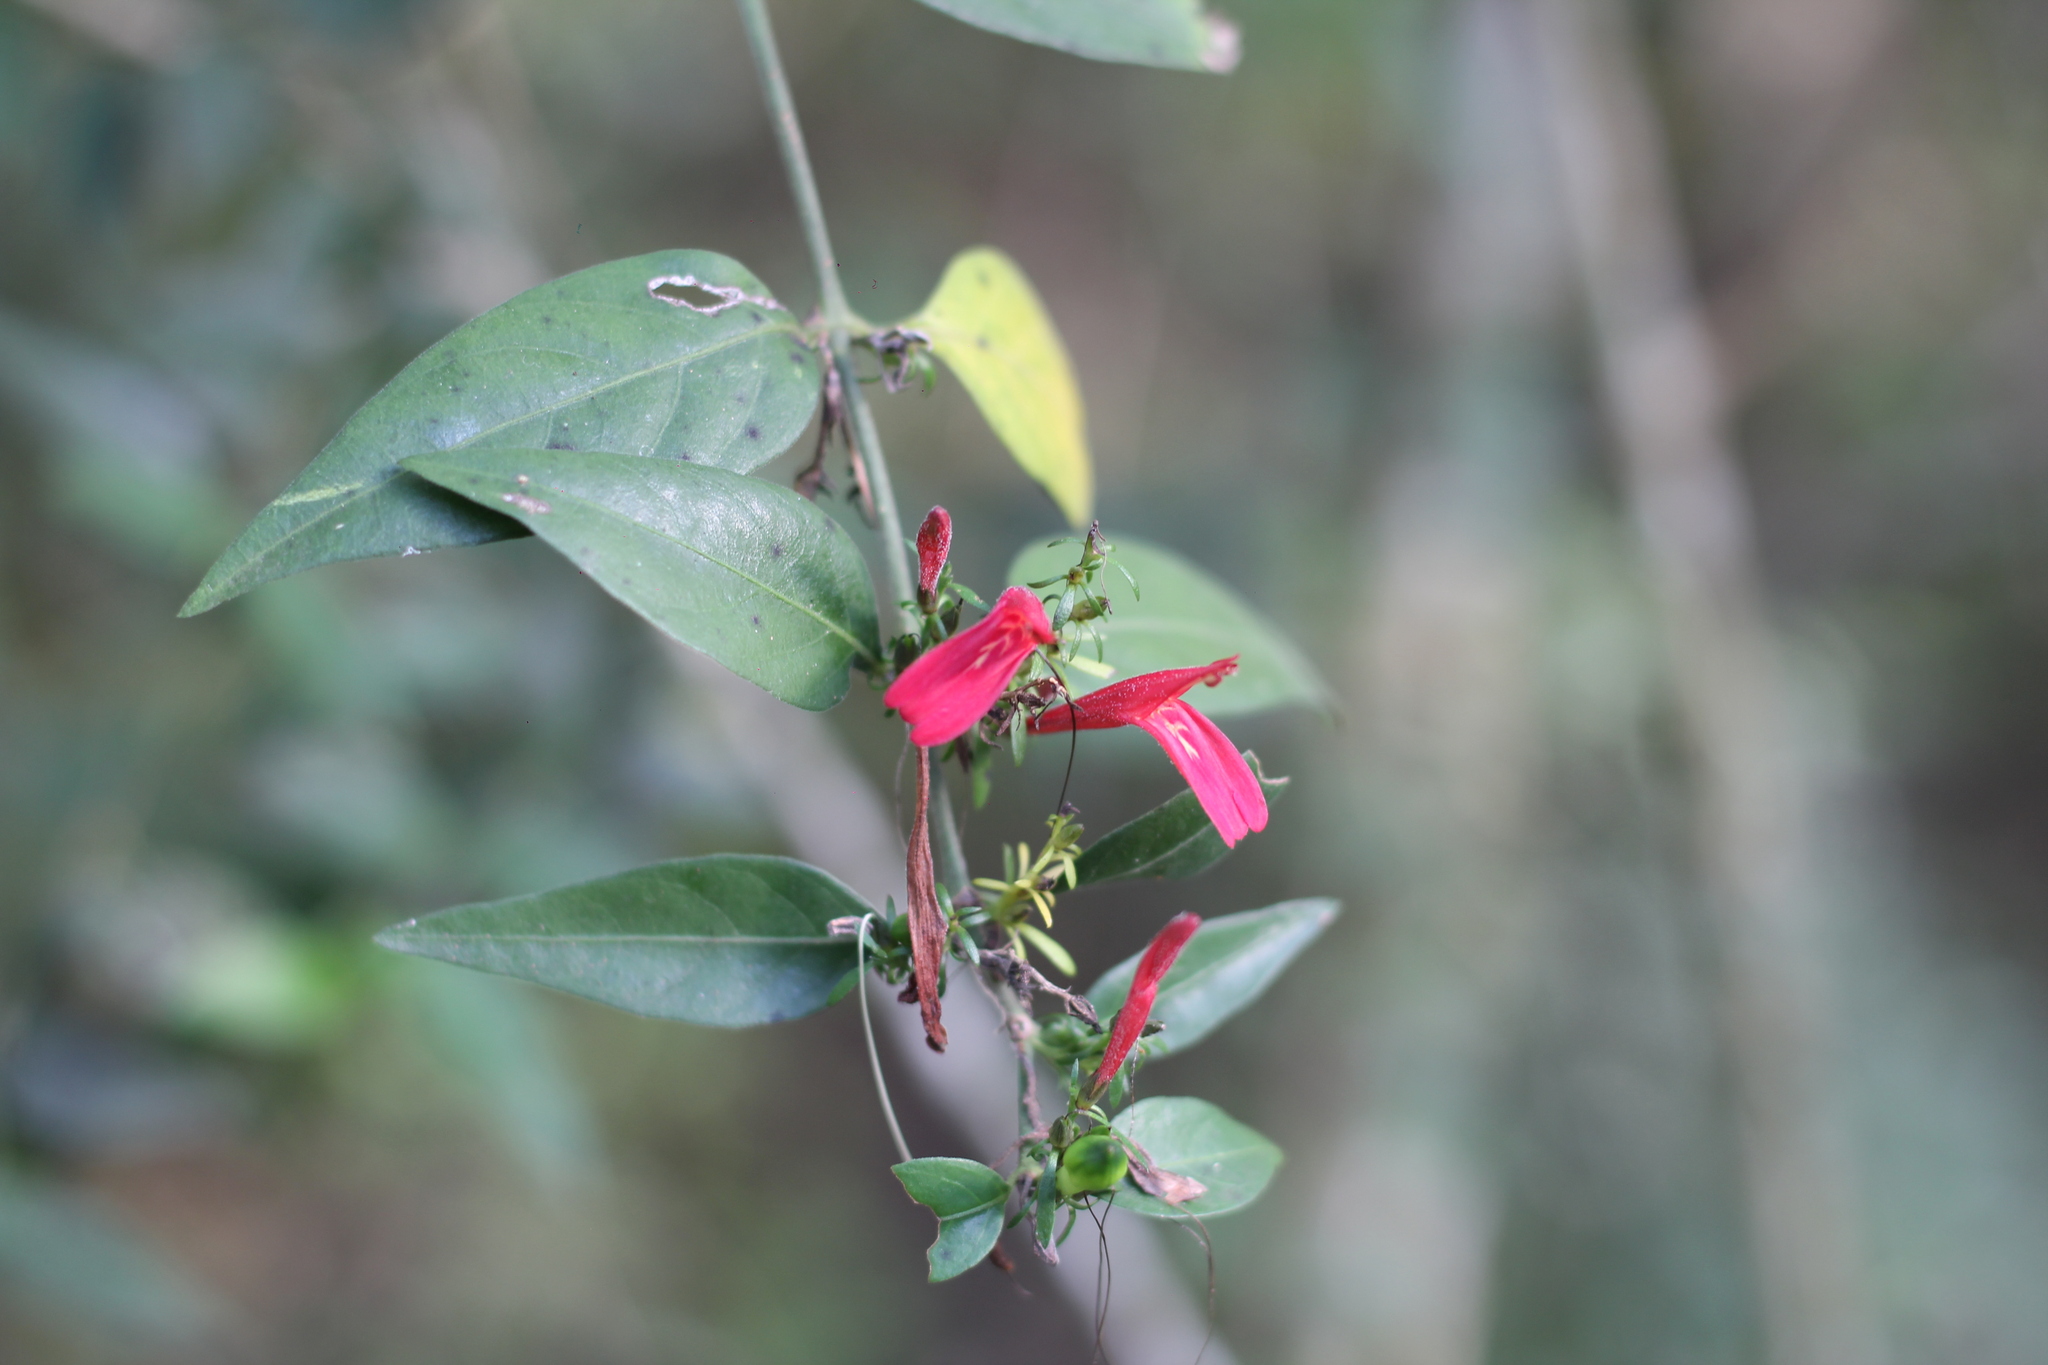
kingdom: Plantae
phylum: Tracheophyta
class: Magnoliopsida
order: Lamiales
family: Acanthaceae
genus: Justicia
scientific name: Justicia brasiliana
